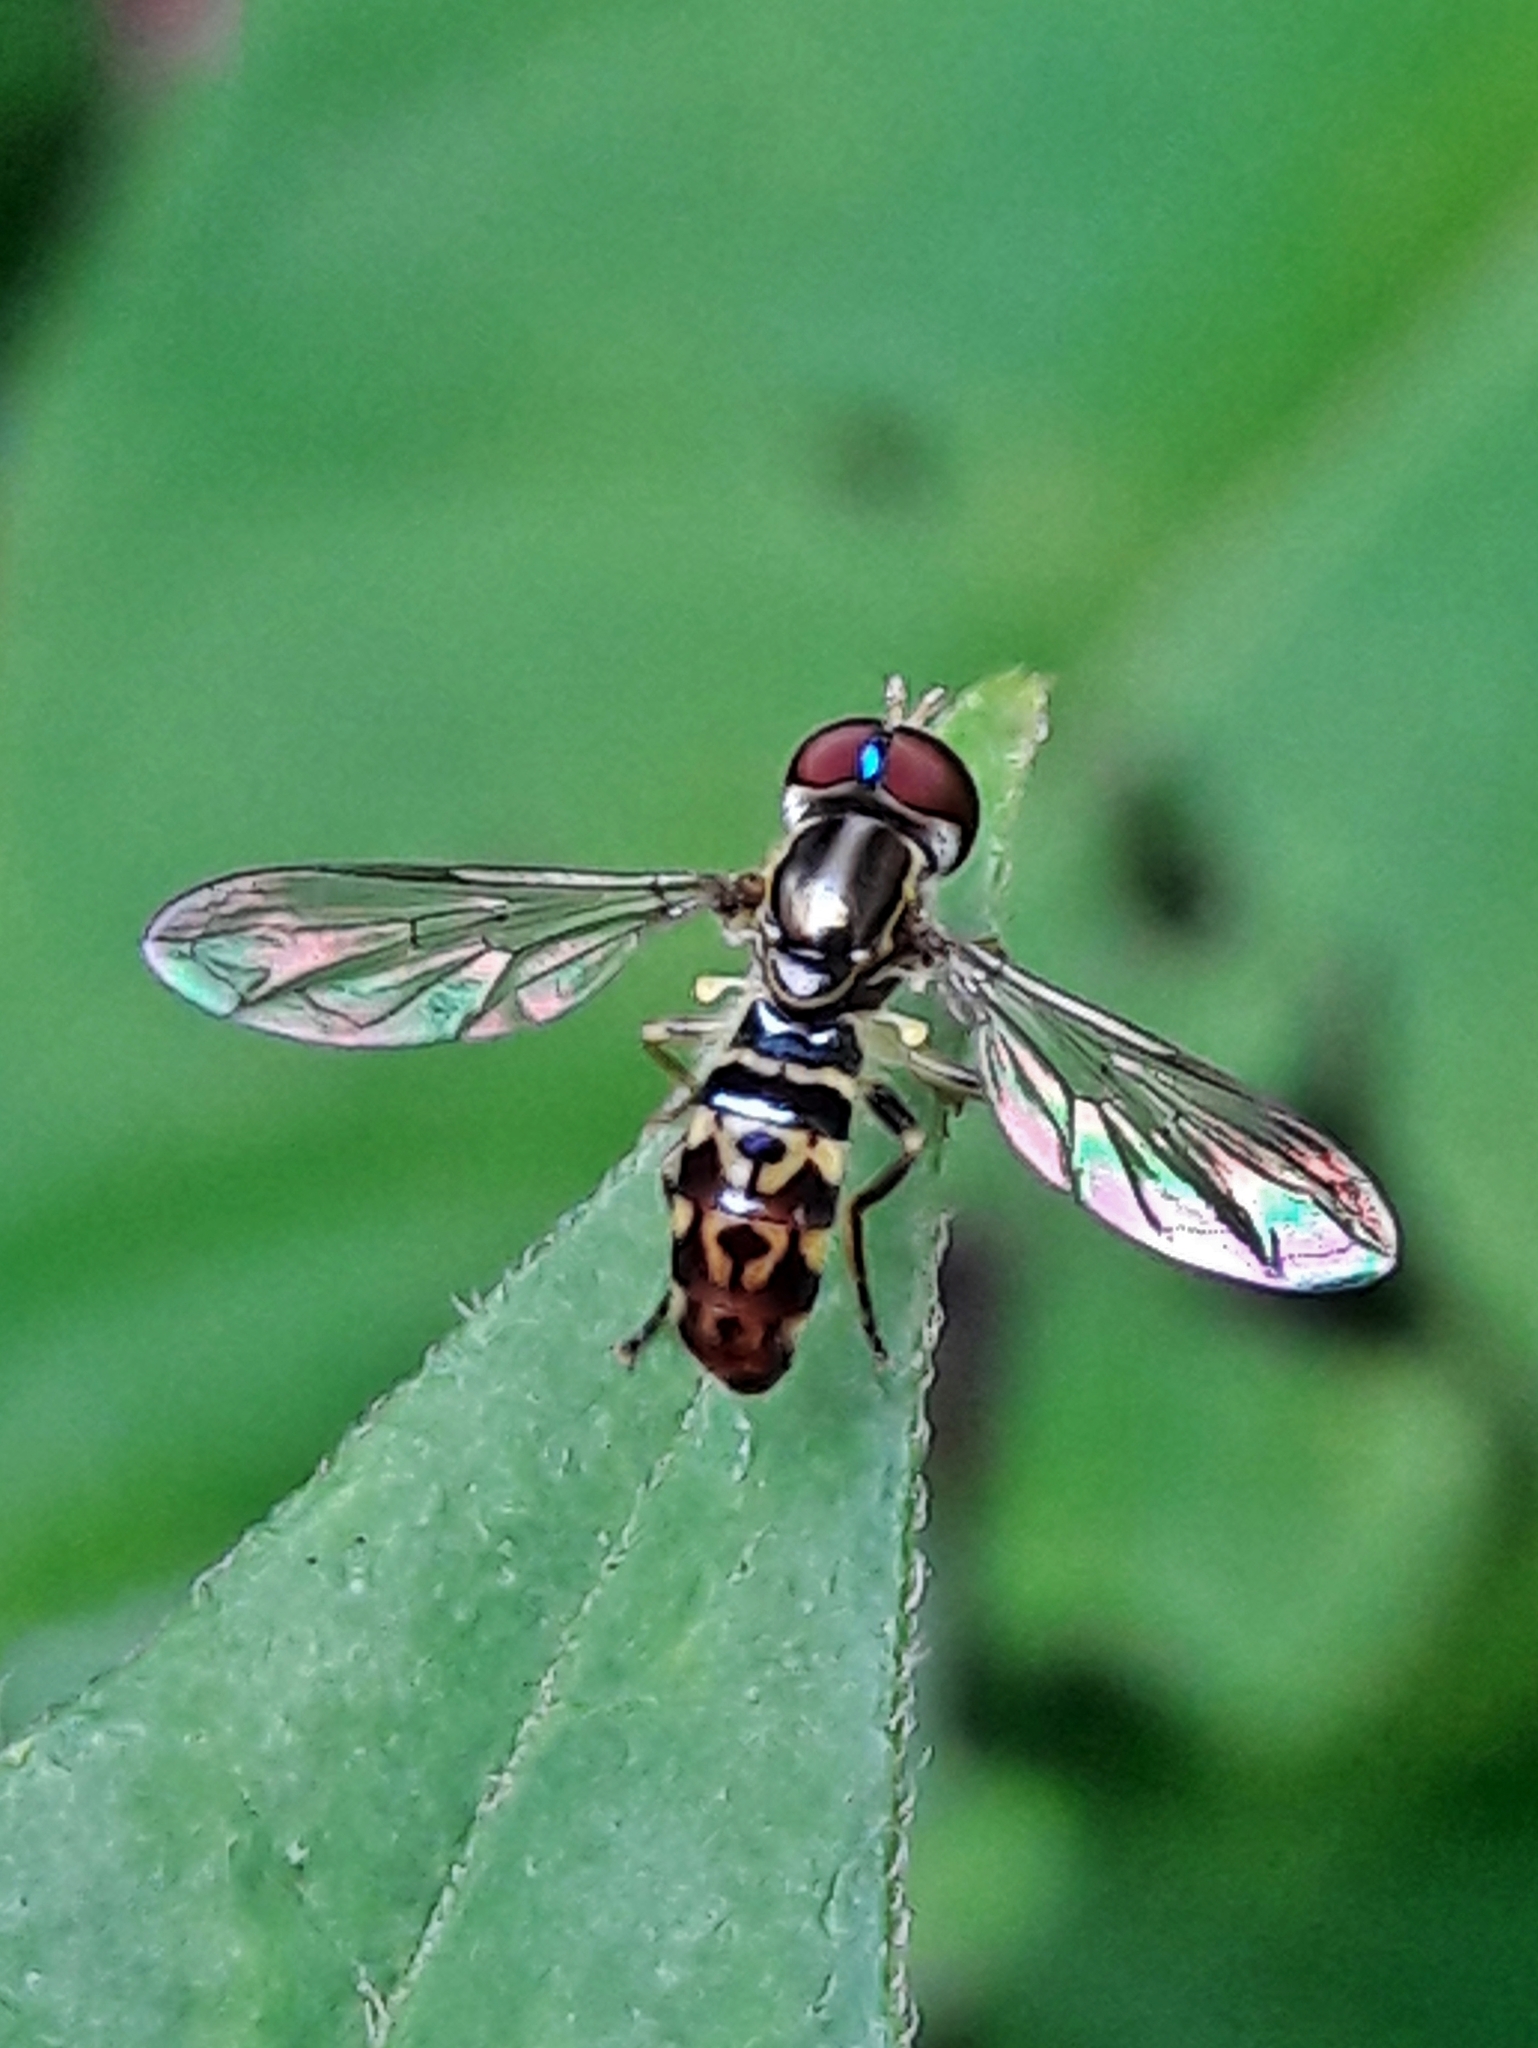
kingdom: Animalia
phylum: Arthropoda
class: Insecta
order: Diptera
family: Syrphidae
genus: Toxomerus
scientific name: Toxomerus virgulatus
